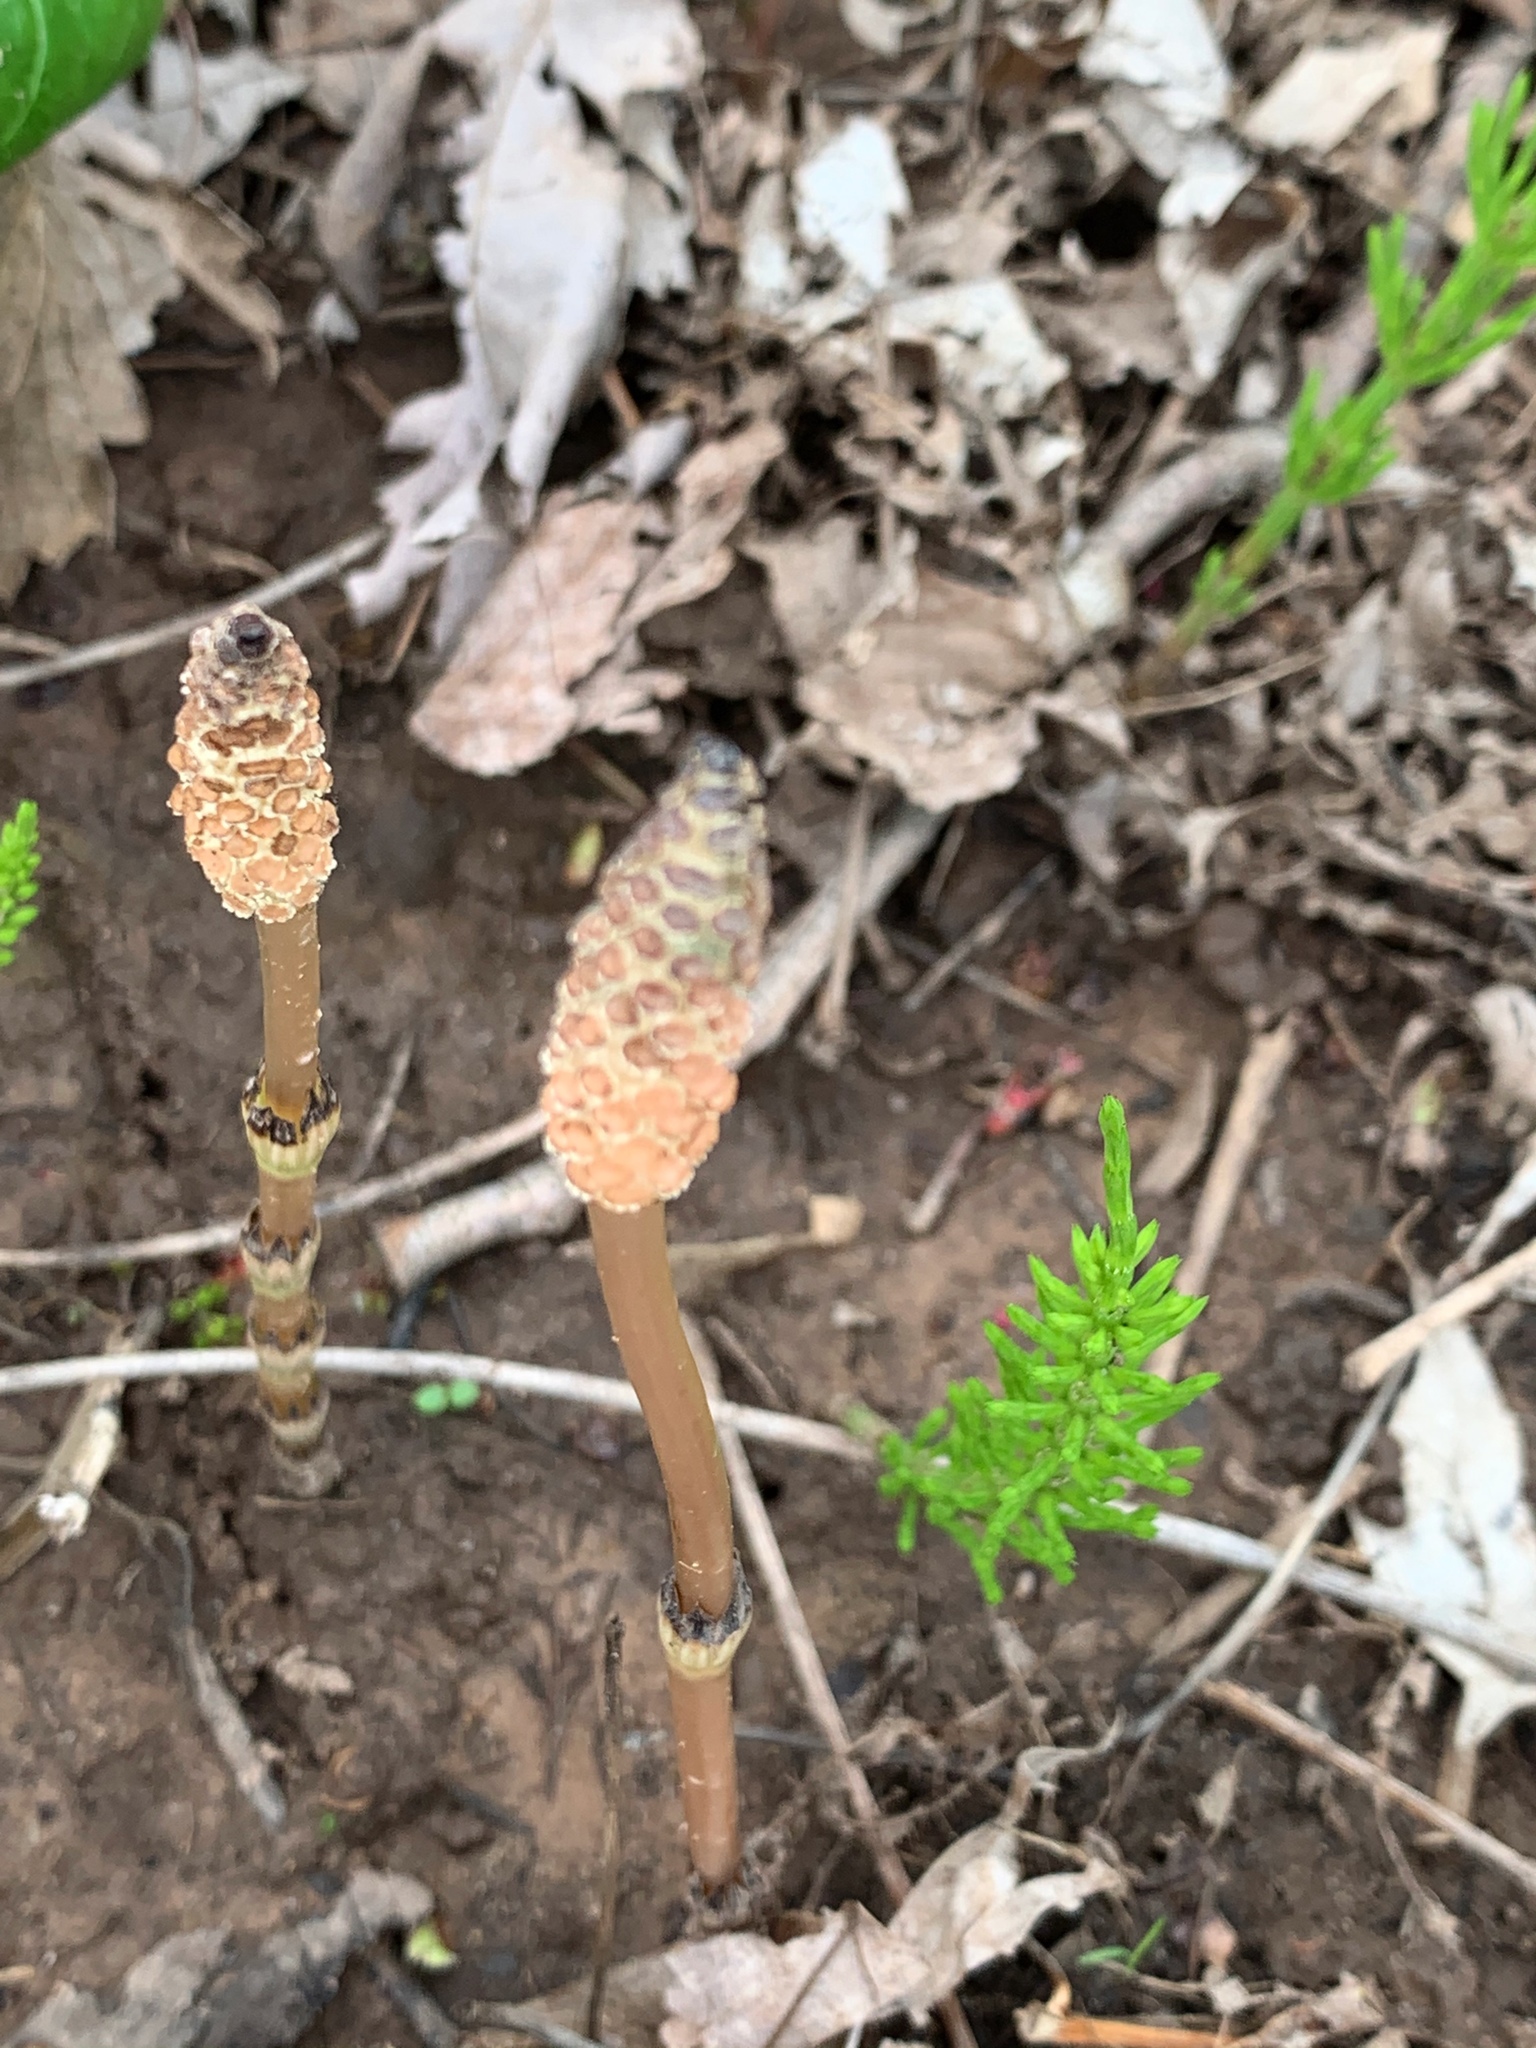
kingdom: Plantae
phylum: Tracheophyta
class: Polypodiopsida
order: Equisetales
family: Equisetaceae
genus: Equisetum
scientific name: Equisetum arvense
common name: Field horsetail
